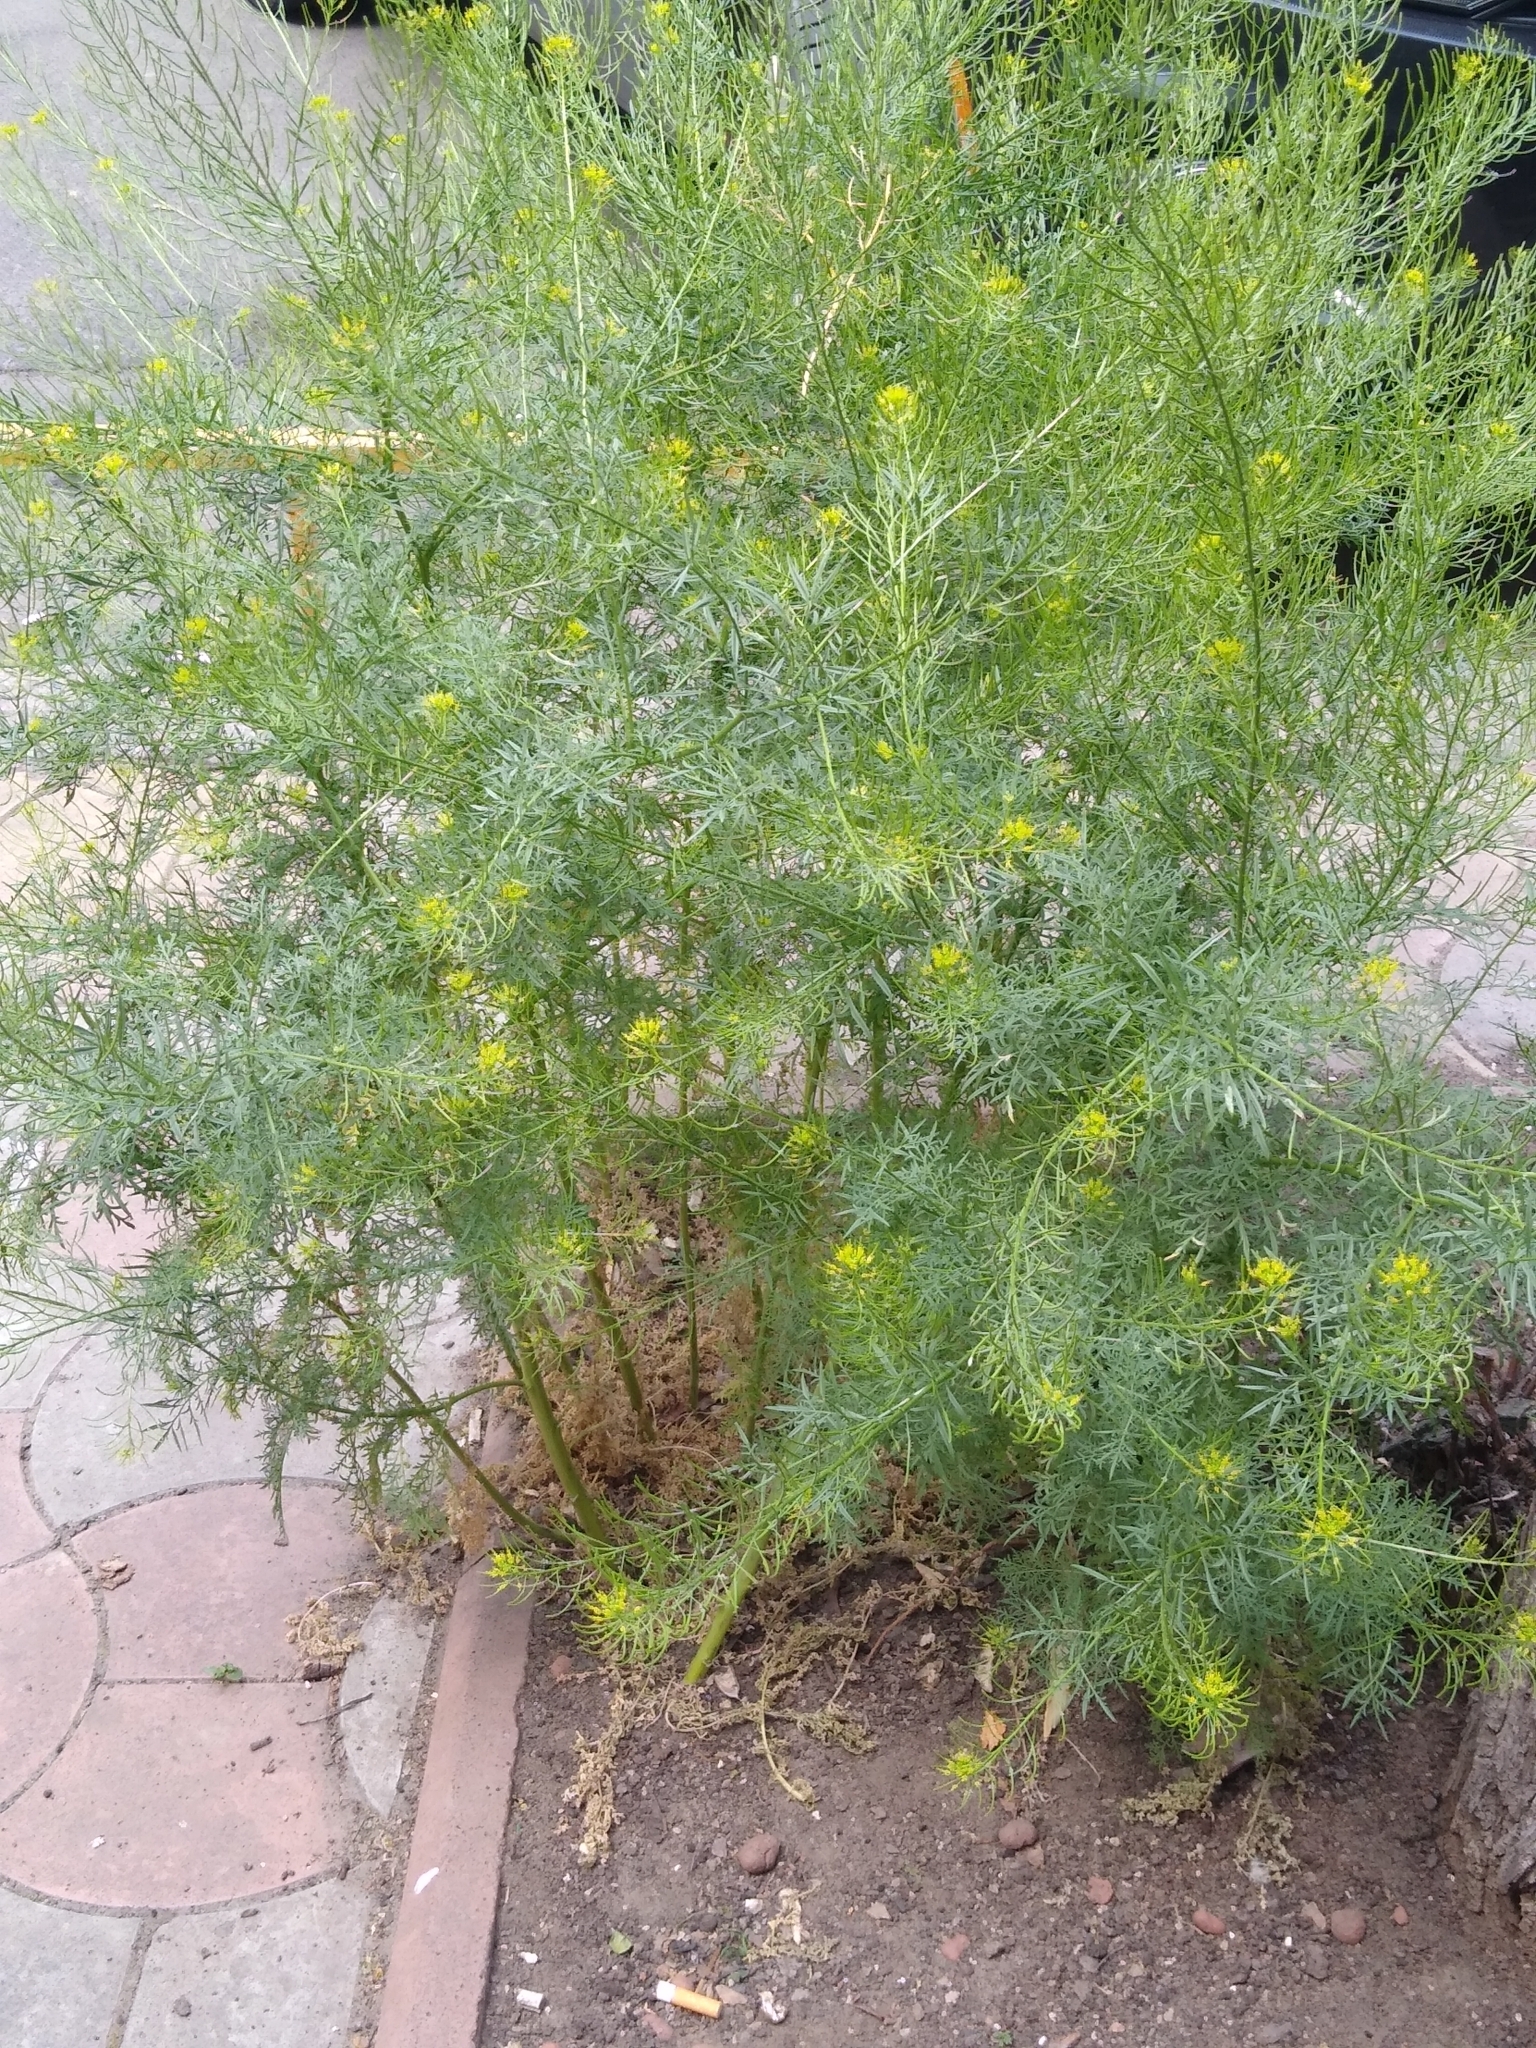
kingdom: Plantae
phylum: Tracheophyta
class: Magnoliopsida
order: Brassicales
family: Brassicaceae
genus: Descurainia
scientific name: Descurainia sophia
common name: Flixweed
